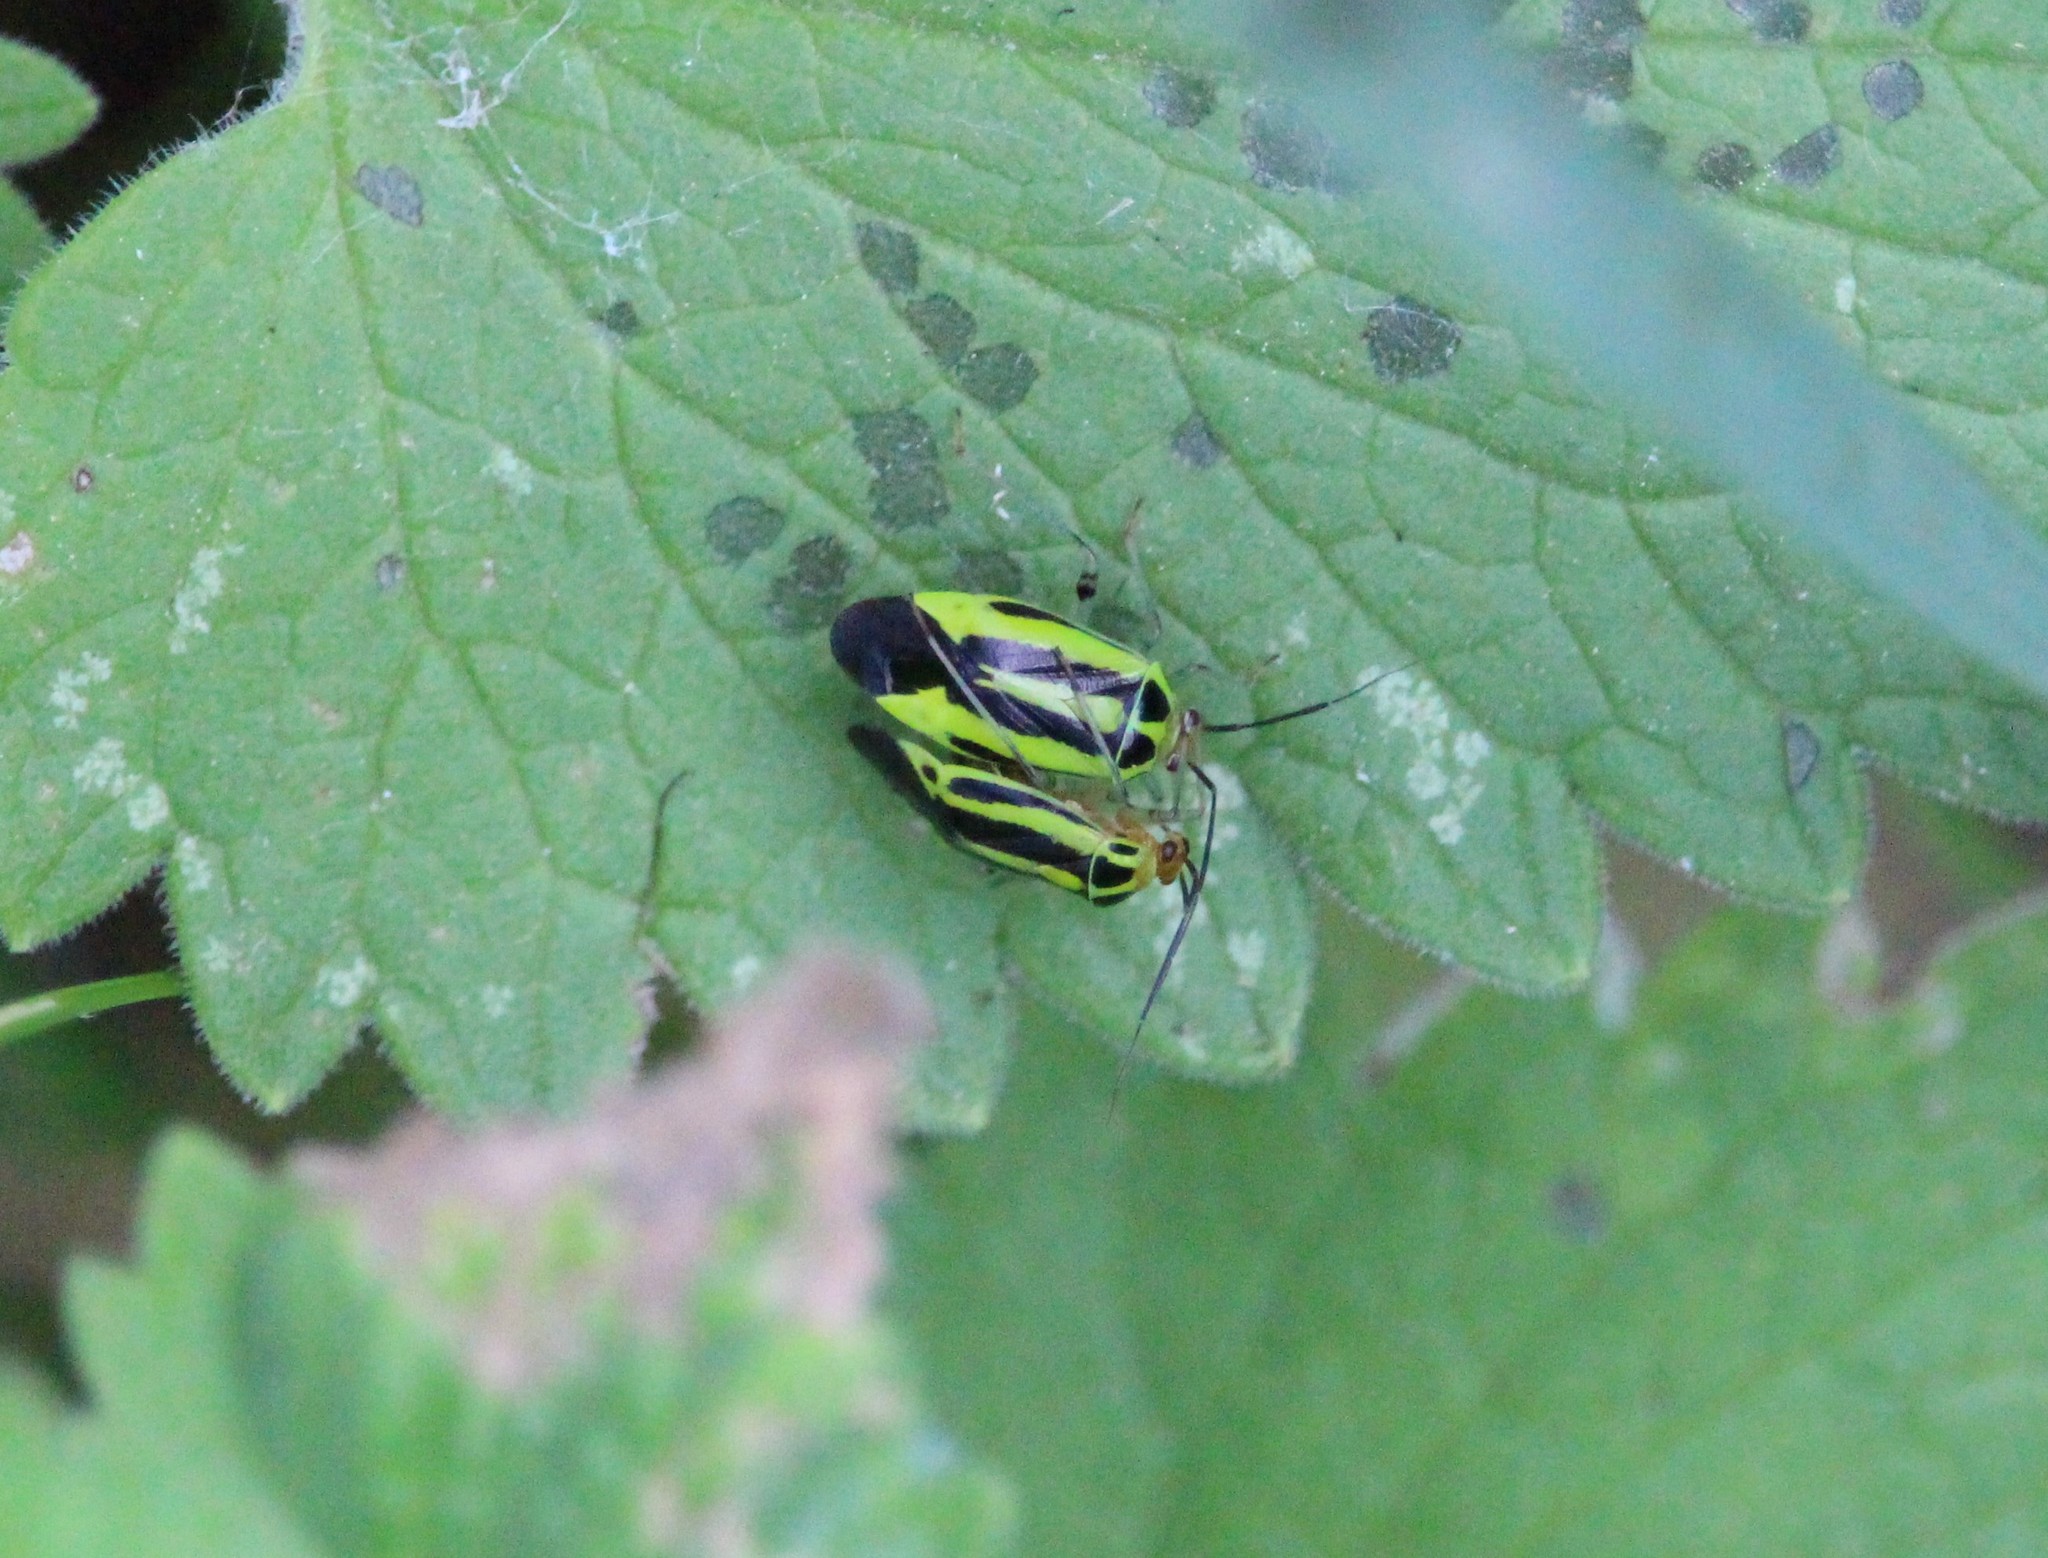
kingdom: Animalia
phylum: Arthropoda
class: Insecta
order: Hemiptera
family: Miridae
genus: Poecilocapsus
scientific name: Poecilocapsus lineatus
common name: Four-lined plant bug
